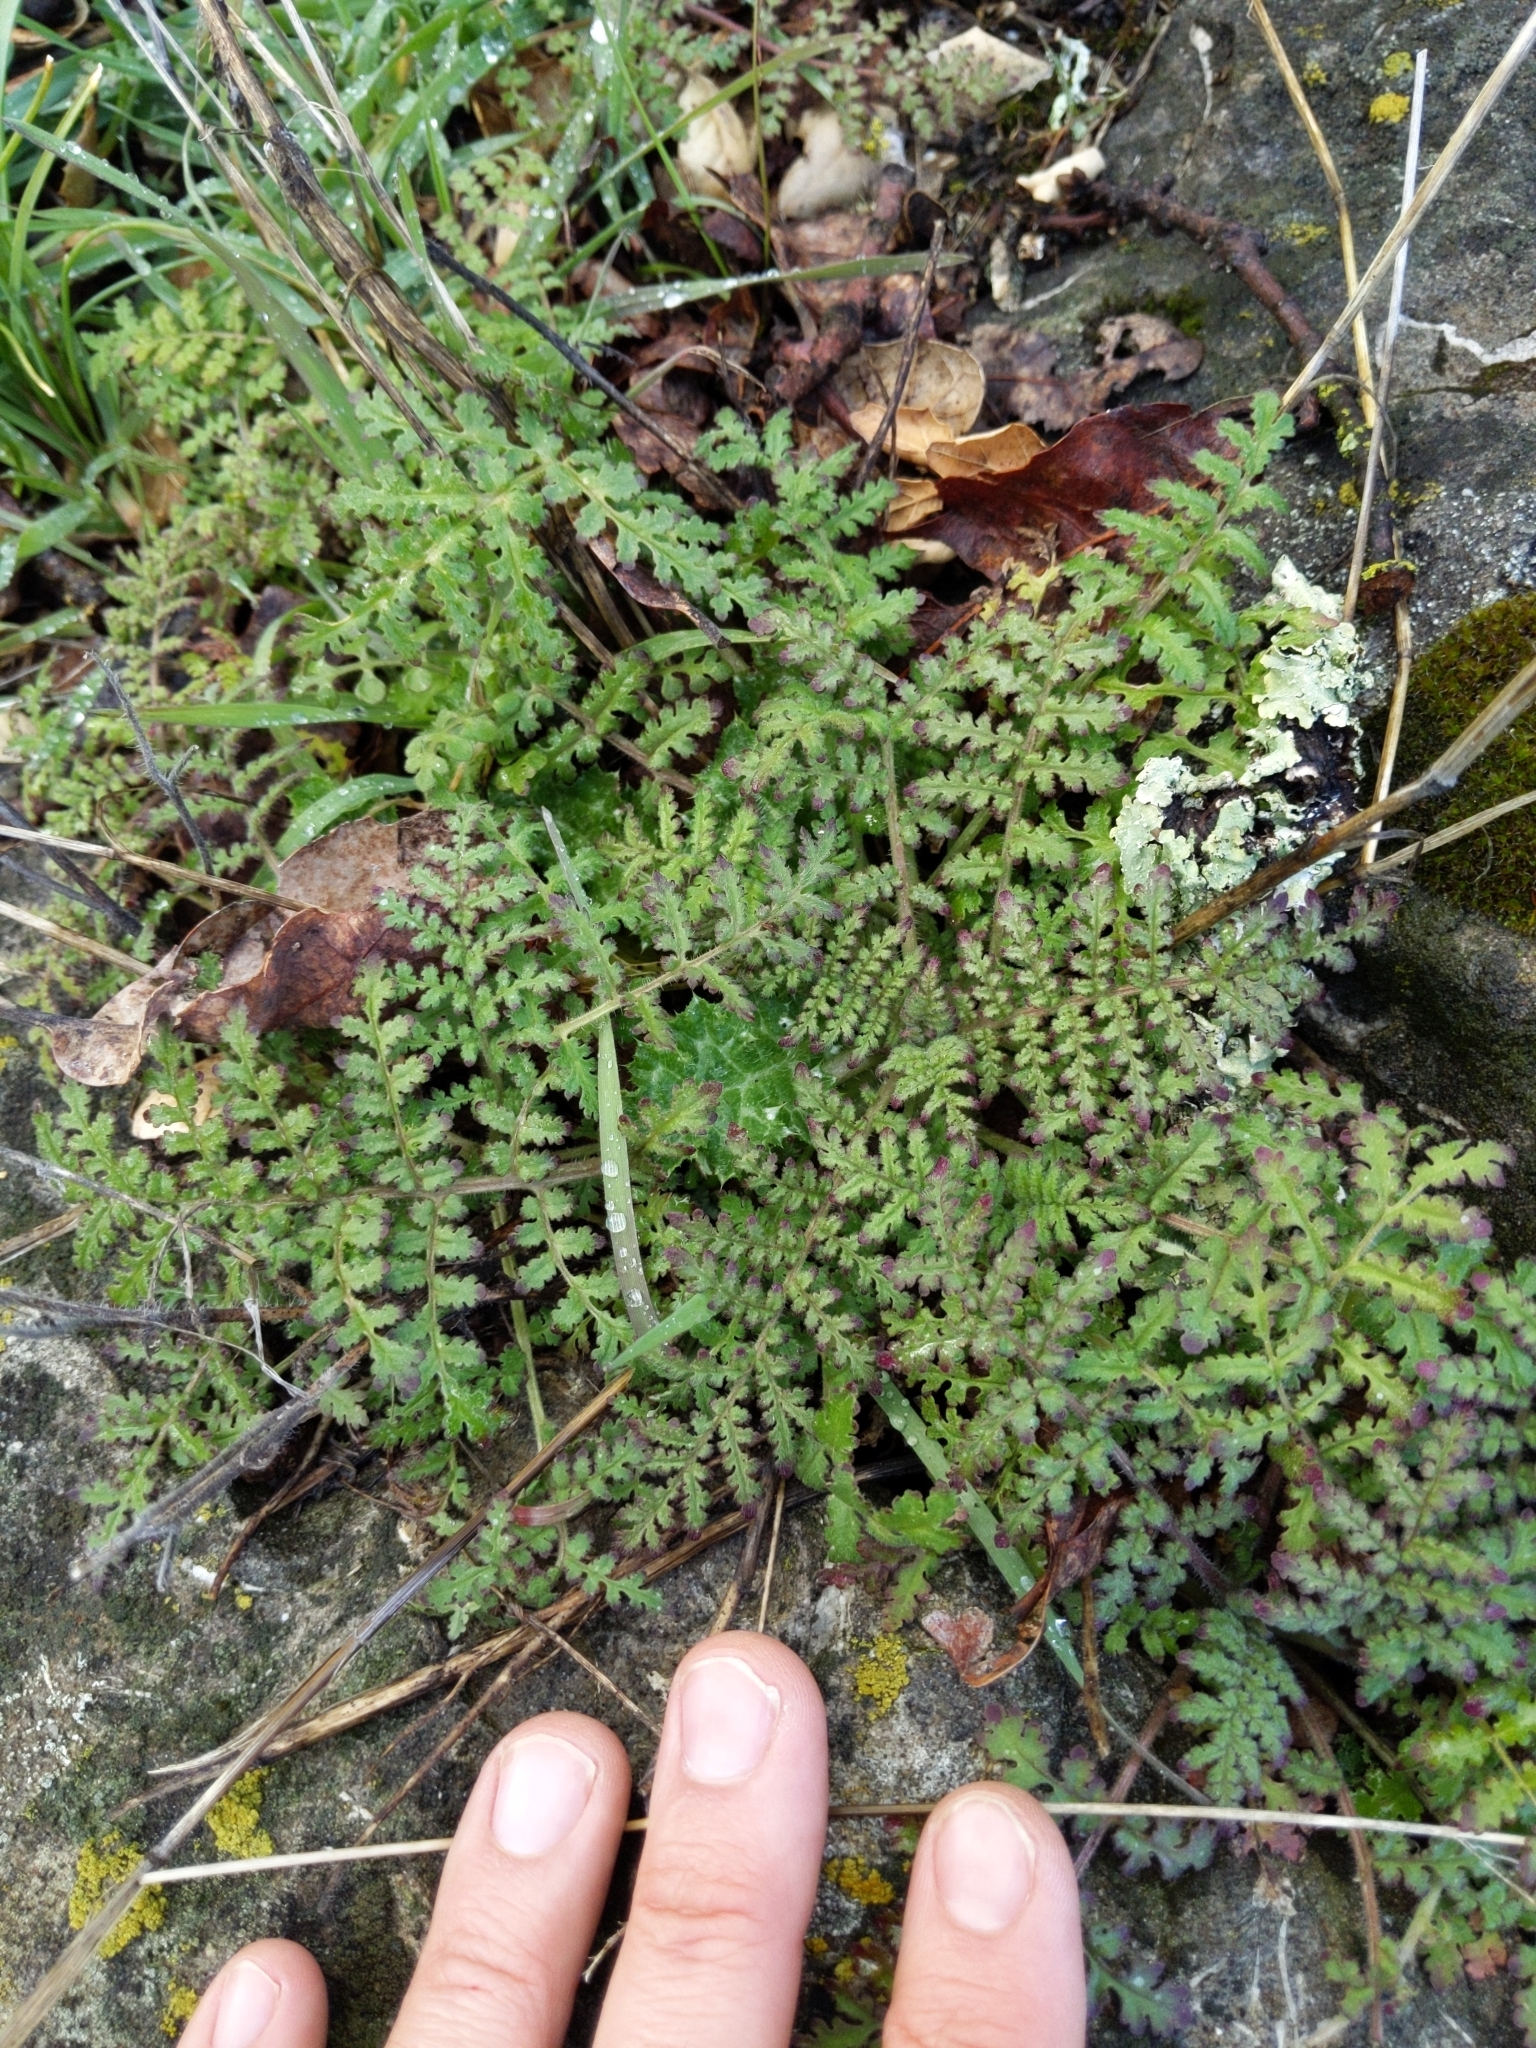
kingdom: Plantae
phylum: Tracheophyta
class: Magnoliopsida
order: Boraginales
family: Hydrophyllaceae
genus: Phacelia
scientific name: Phacelia distans
